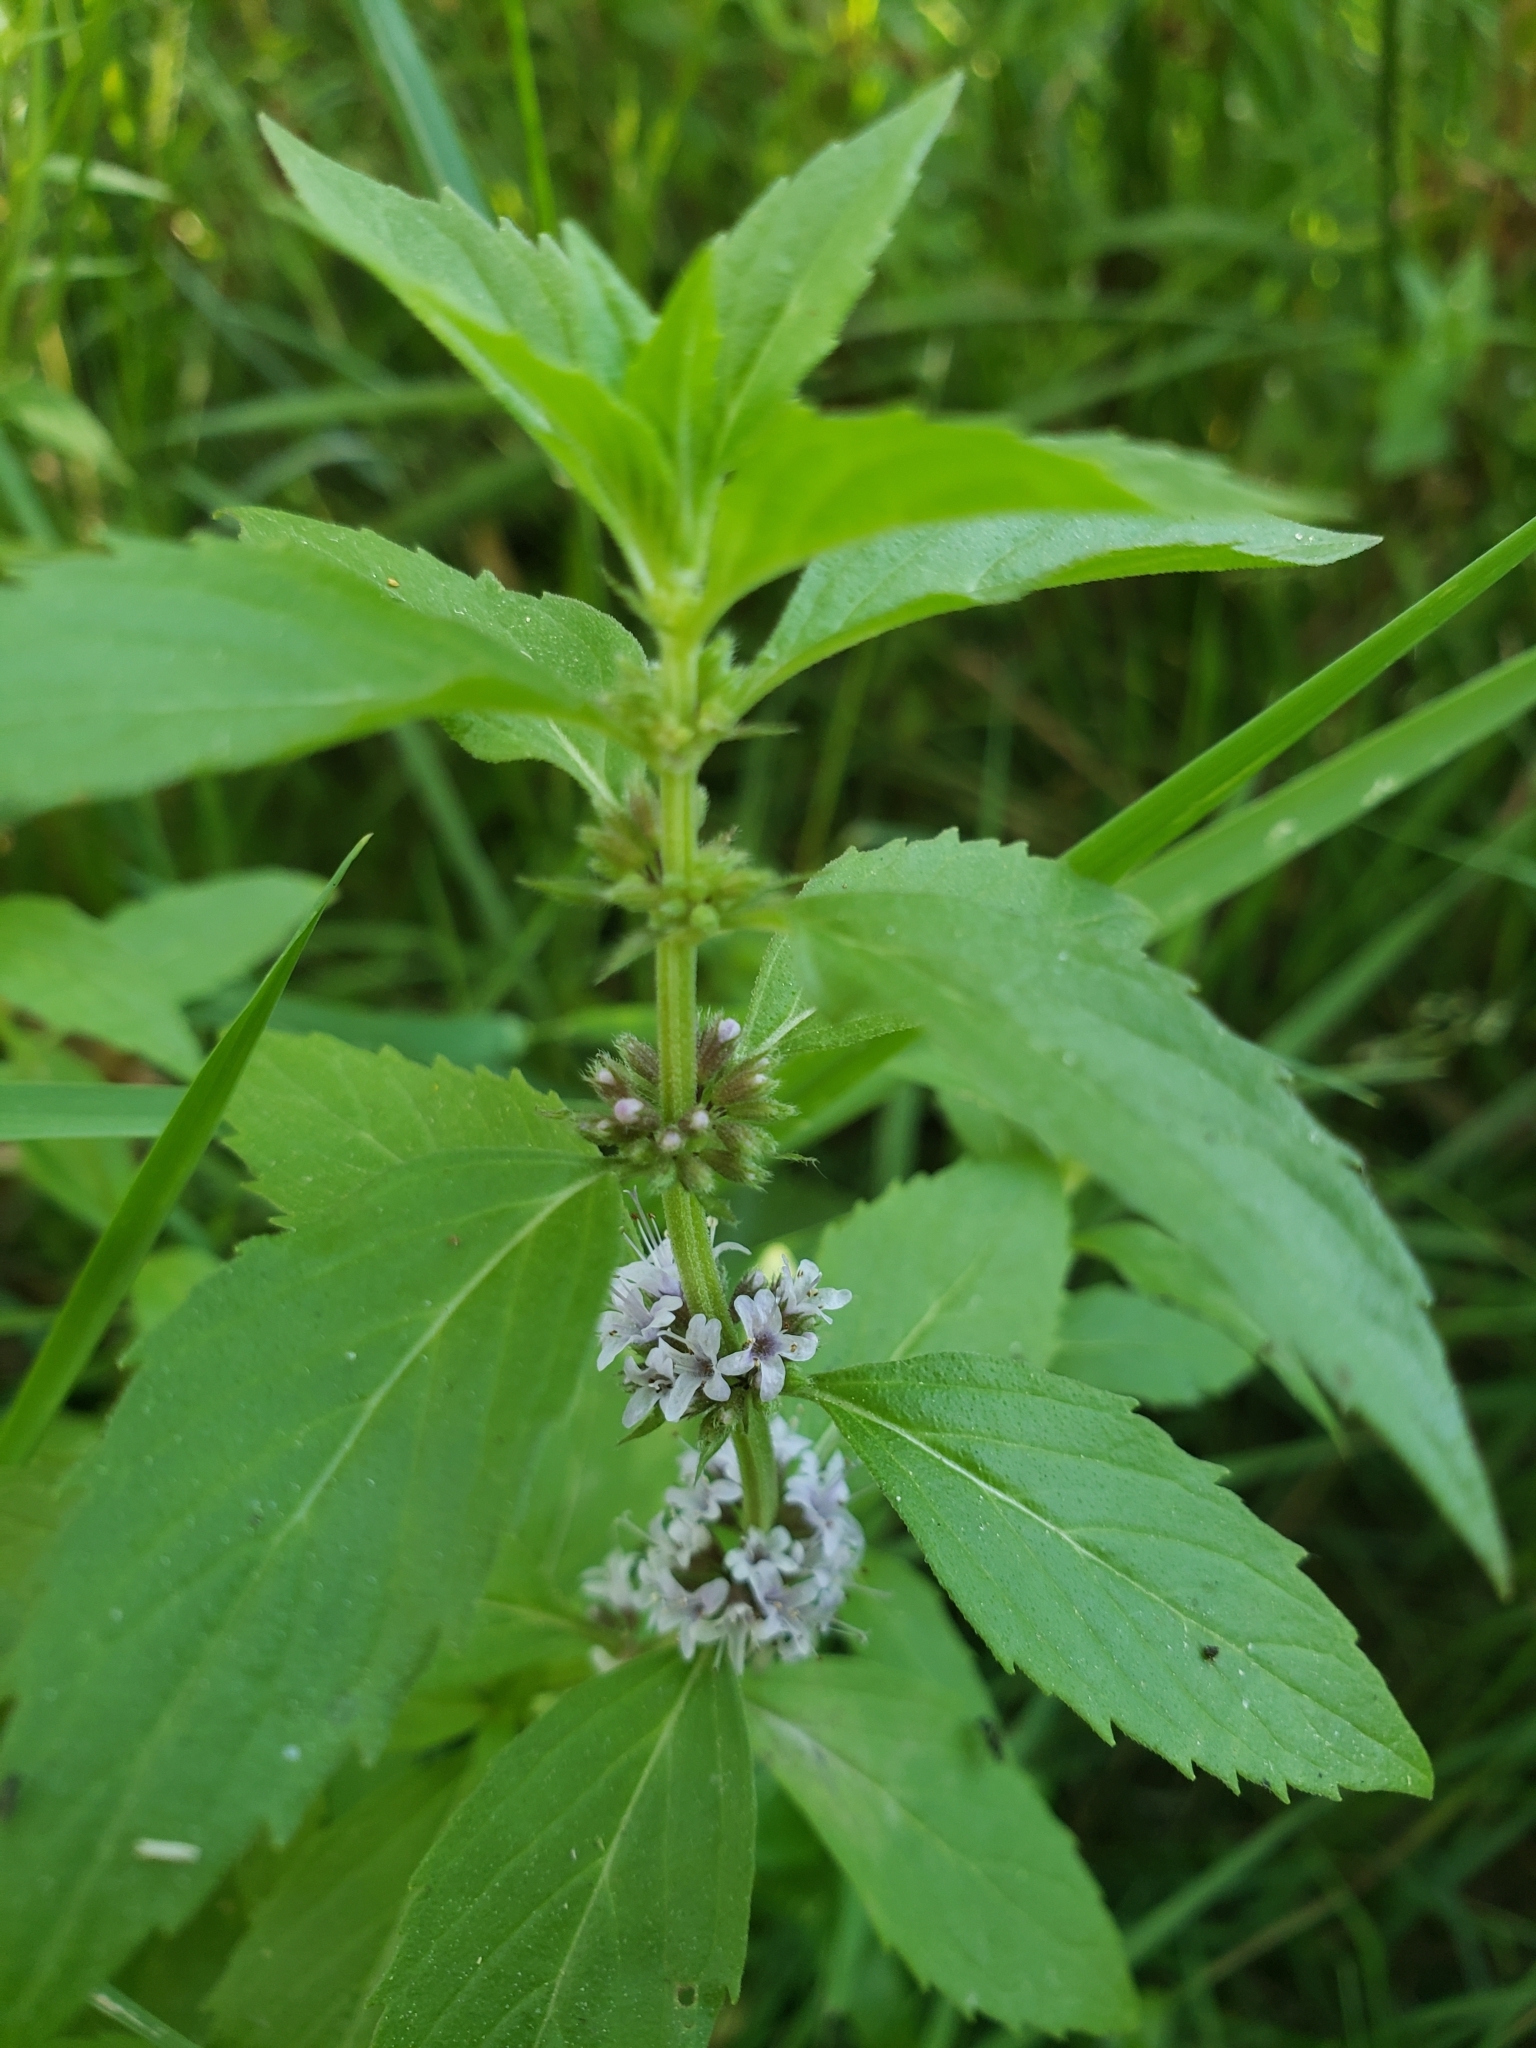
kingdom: Plantae
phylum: Tracheophyta
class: Magnoliopsida
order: Lamiales
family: Lamiaceae
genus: Mentha
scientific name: Mentha canadensis
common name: American corn mint
